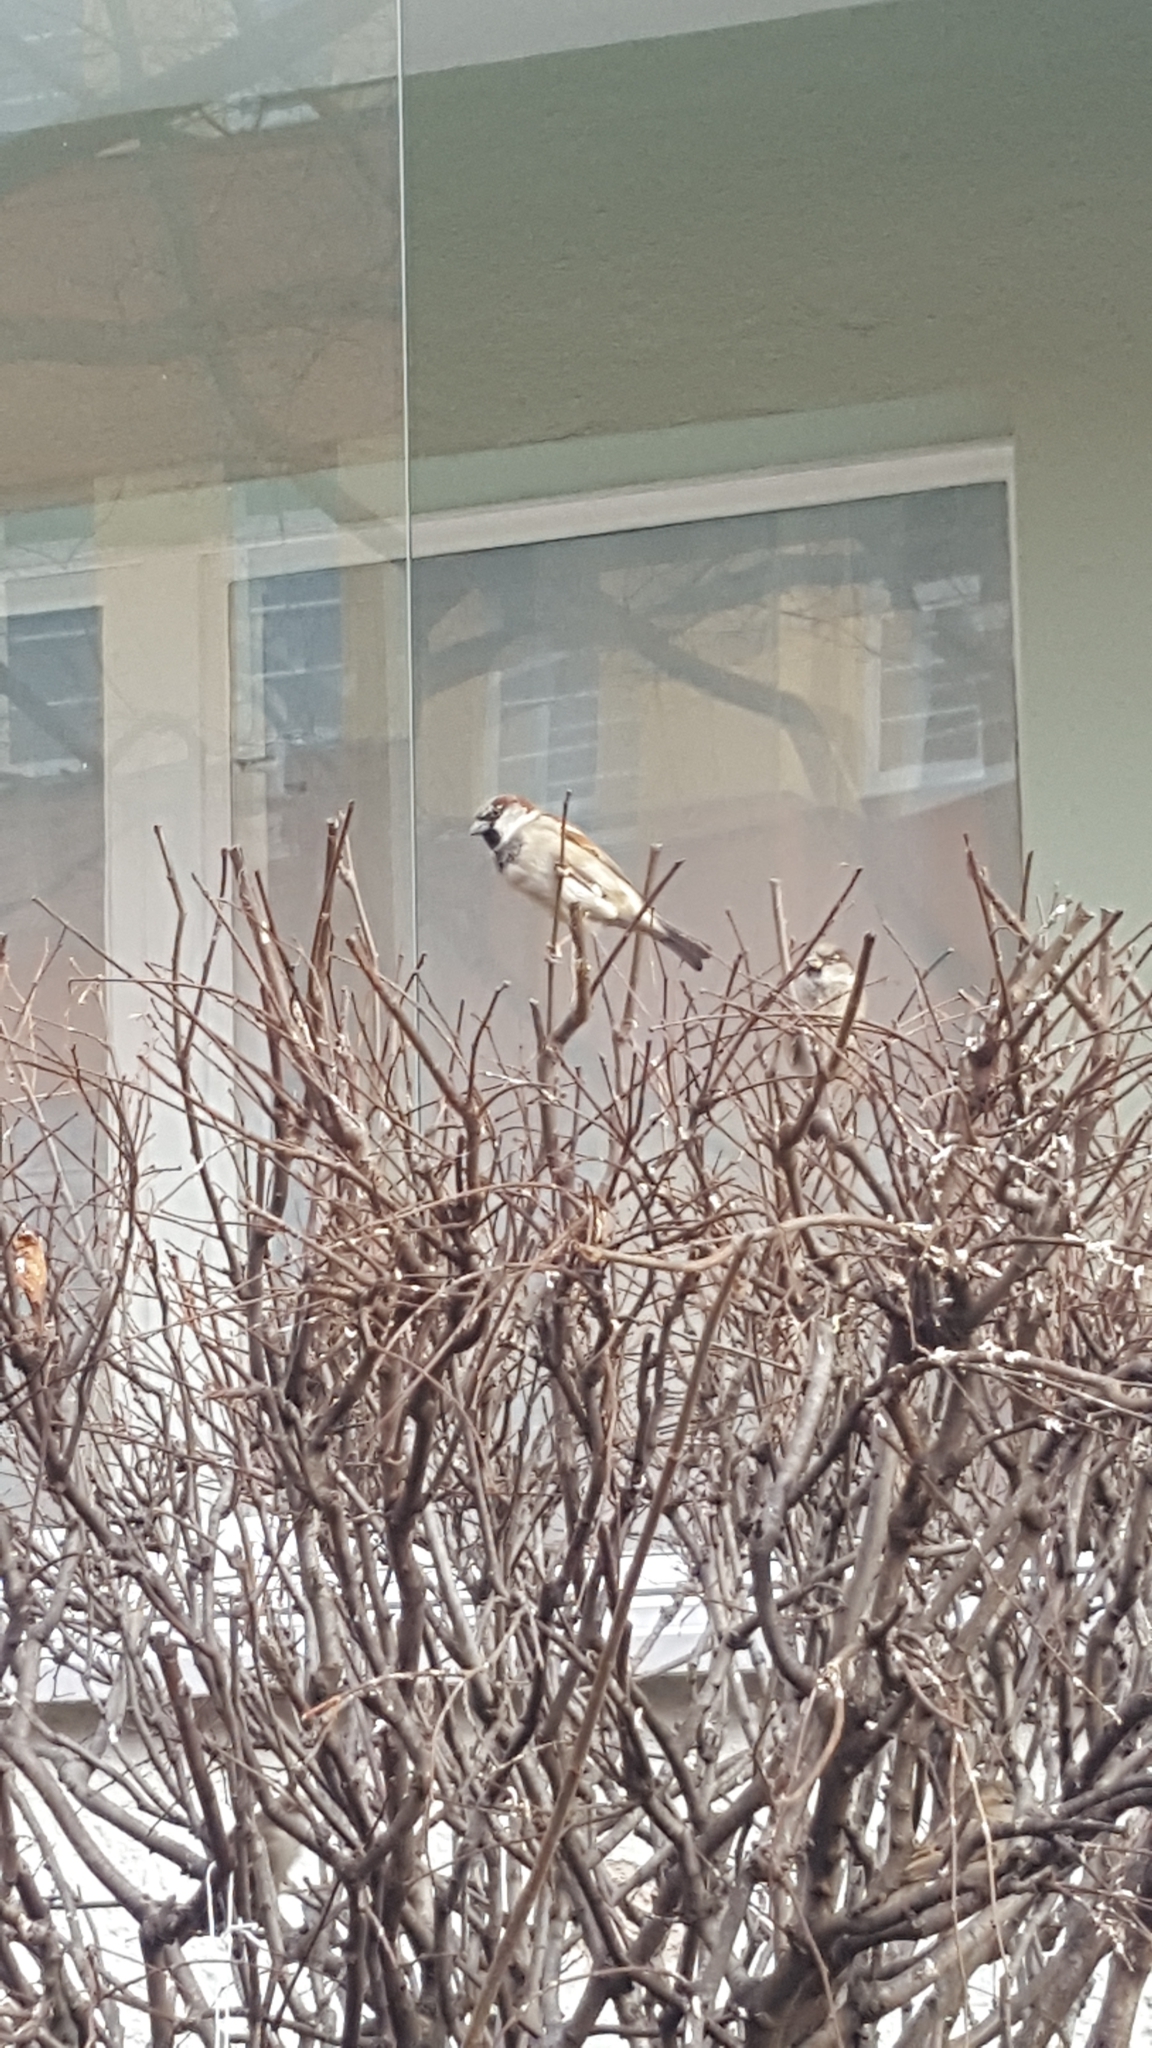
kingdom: Animalia
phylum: Chordata
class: Aves
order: Passeriformes
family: Passeridae
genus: Passer
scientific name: Passer domesticus
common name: House sparrow
